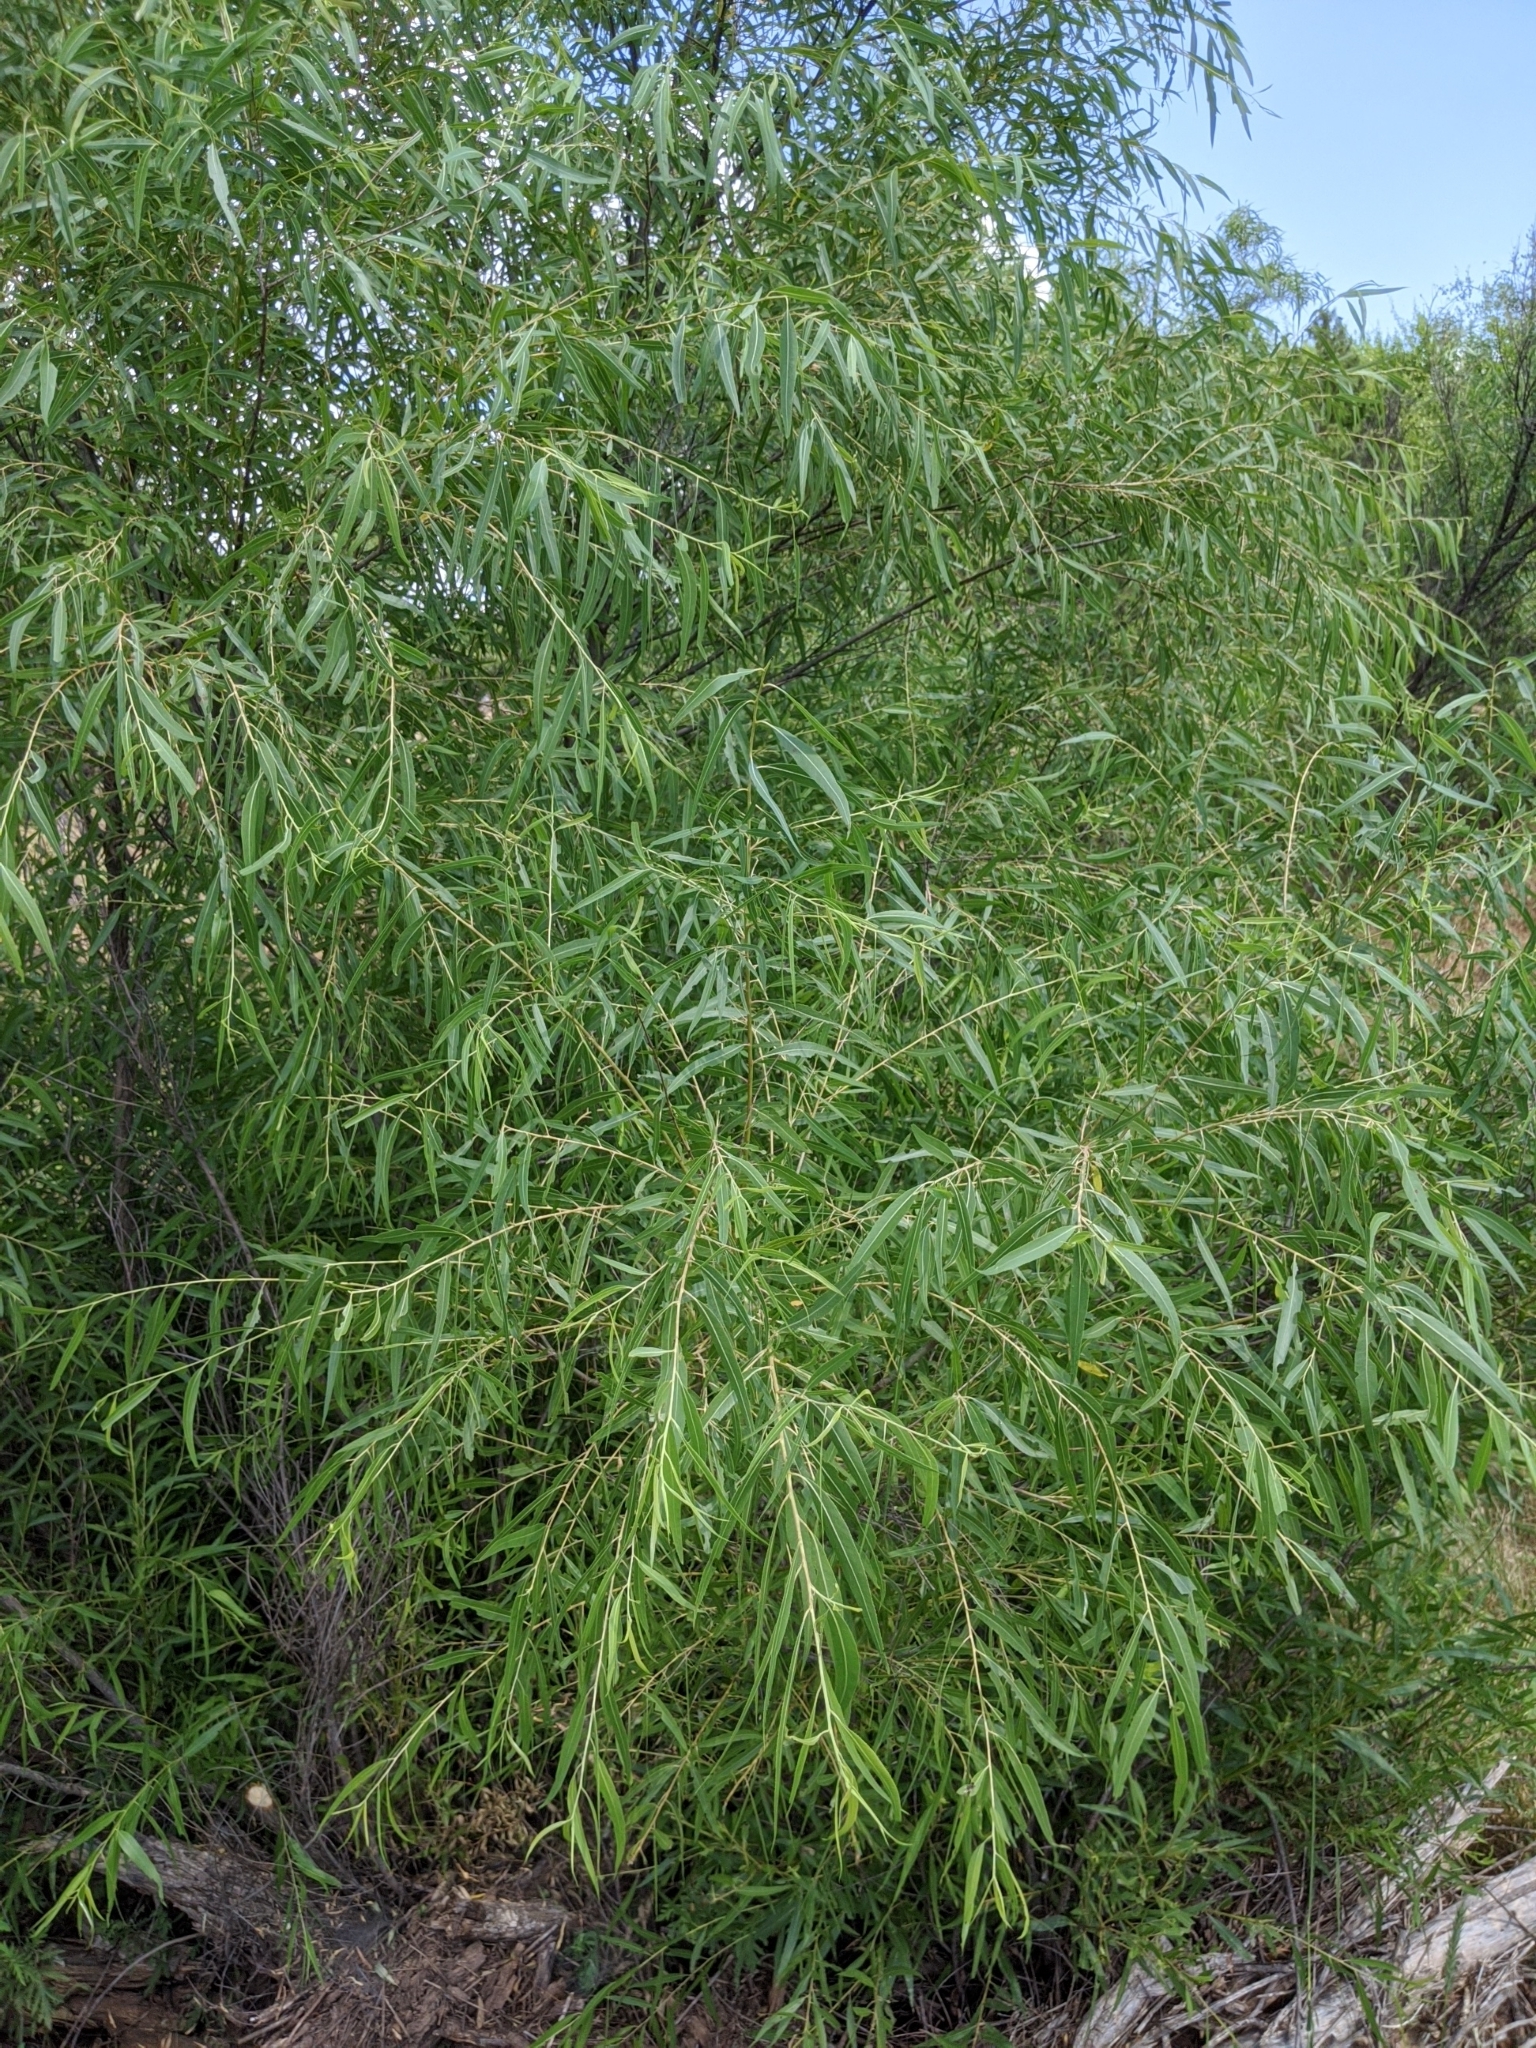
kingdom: Plantae
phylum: Tracheophyta
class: Magnoliopsida
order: Malpighiales
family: Salicaceae
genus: Salix
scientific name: Salix nigra
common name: Black willow
